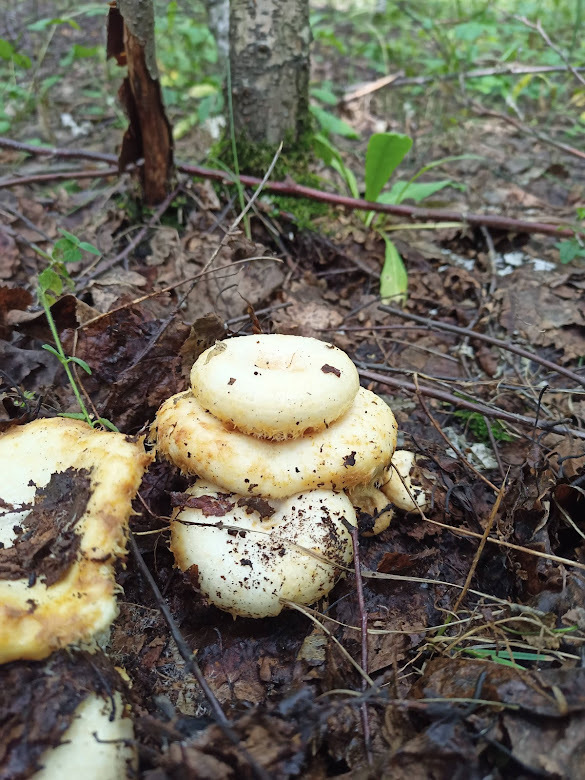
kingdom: Fungi
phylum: Basidiomycota
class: Agaricomycetes
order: Russulales
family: Russulaceae
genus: Lactarius
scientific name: Lactarius resimus
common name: Rollrim milkcap
